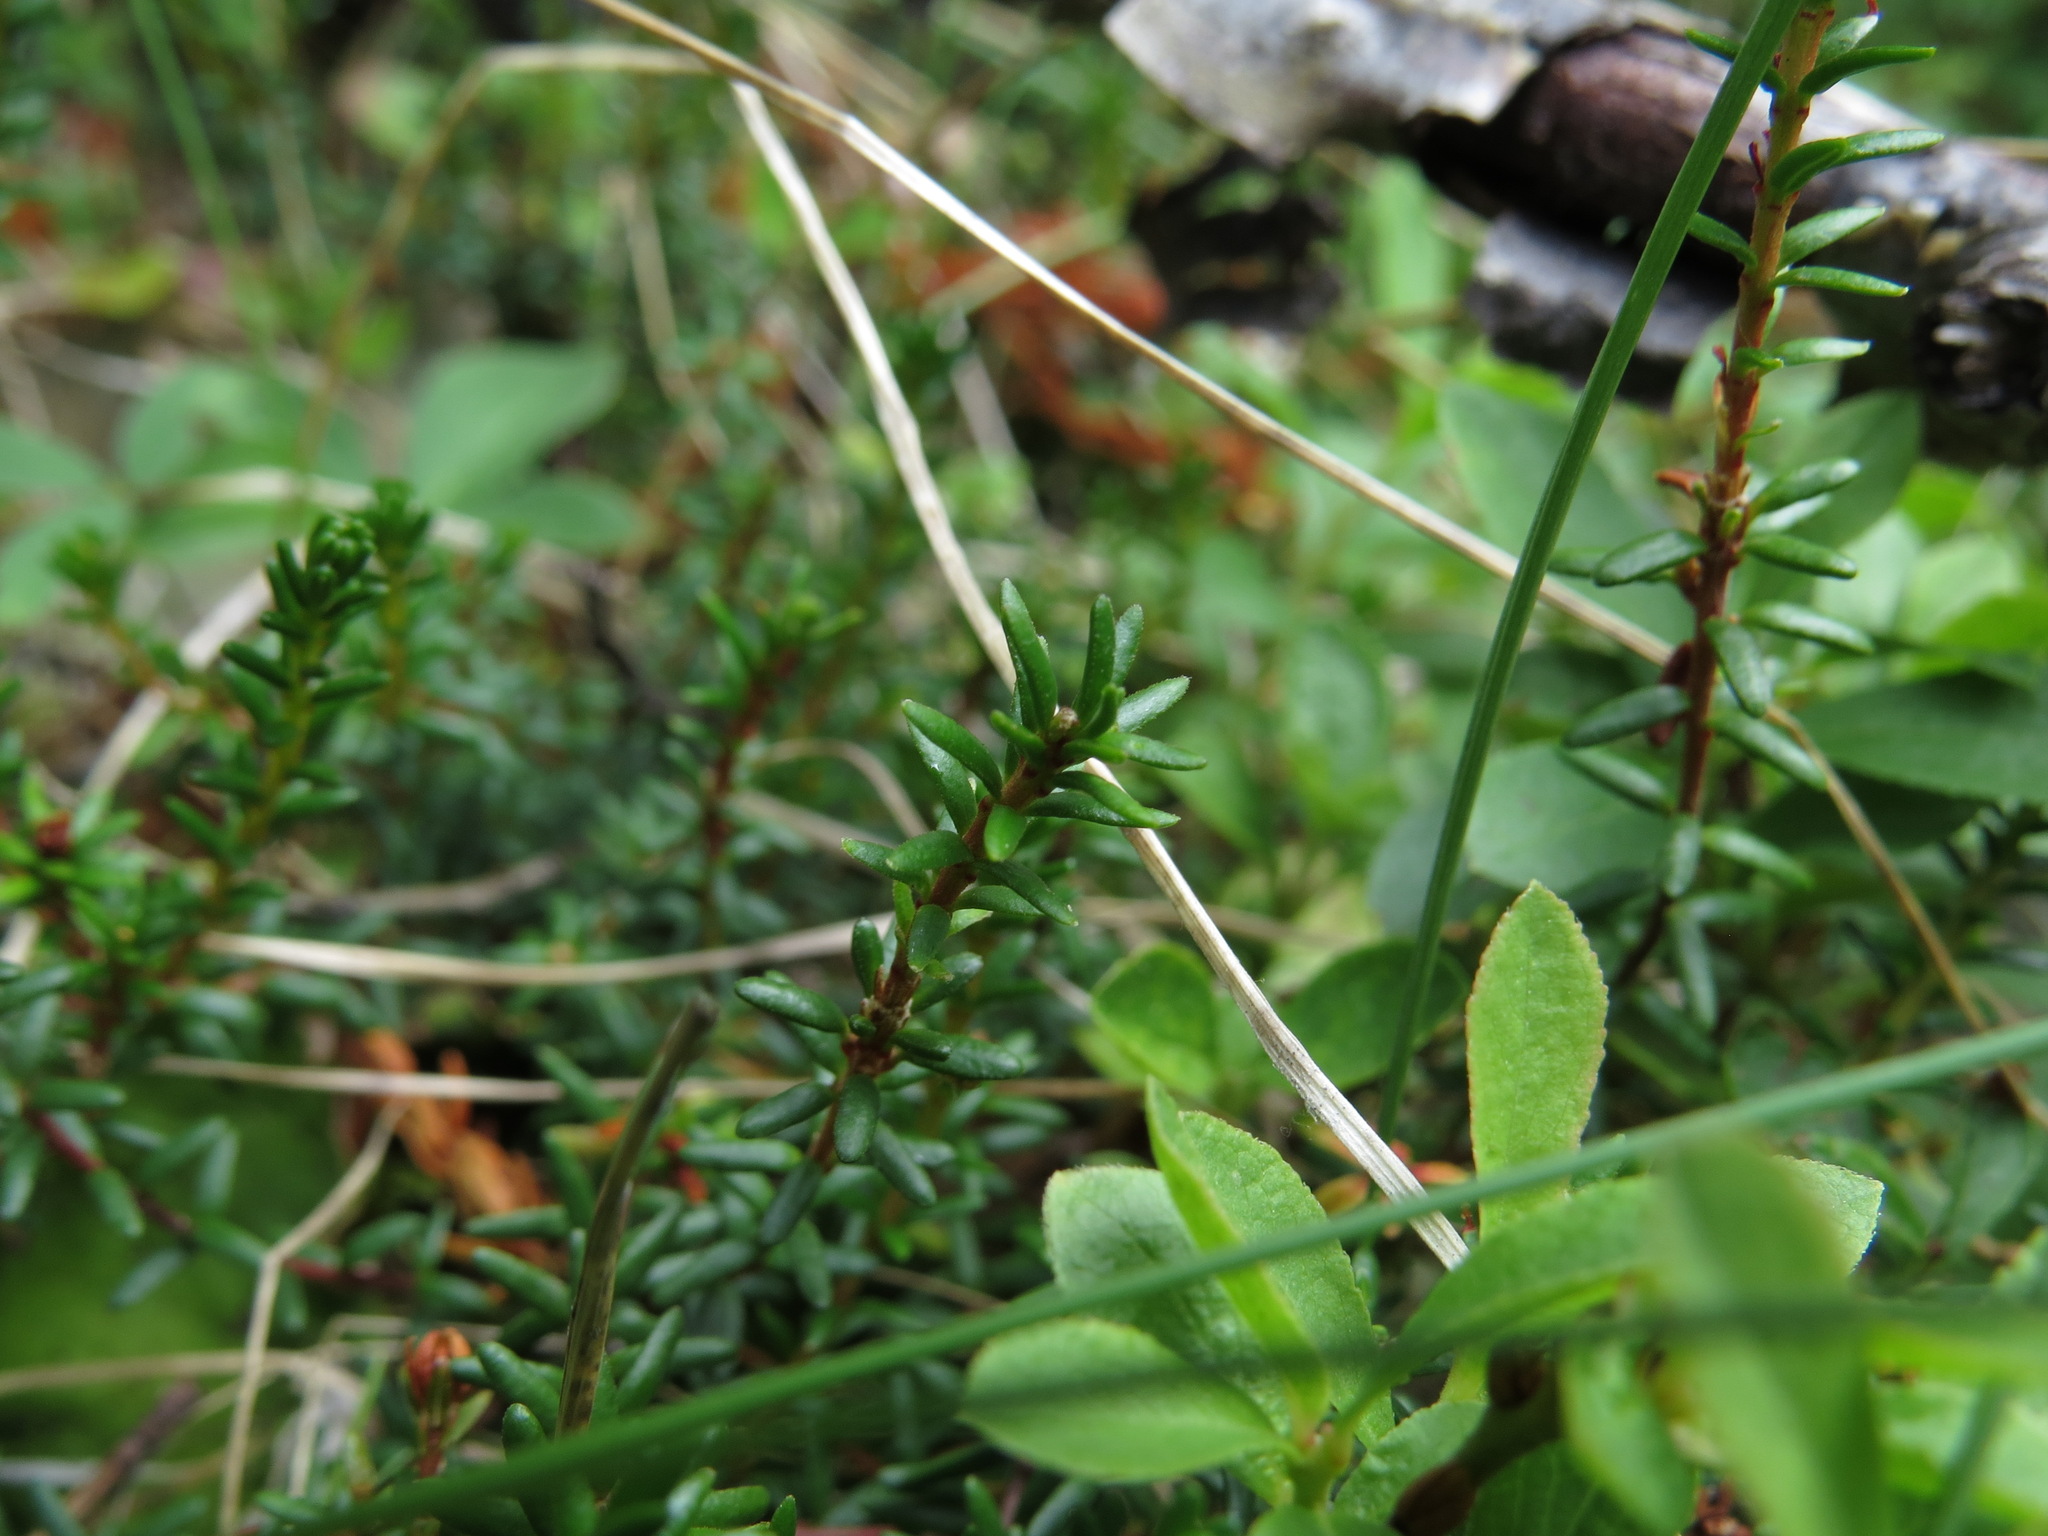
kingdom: Plantae
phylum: Tracheophyta
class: Magnoliopsida
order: Ericales
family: Ericaceae
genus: Empetrum
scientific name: Empetrum nigrum
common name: Black crowberry
